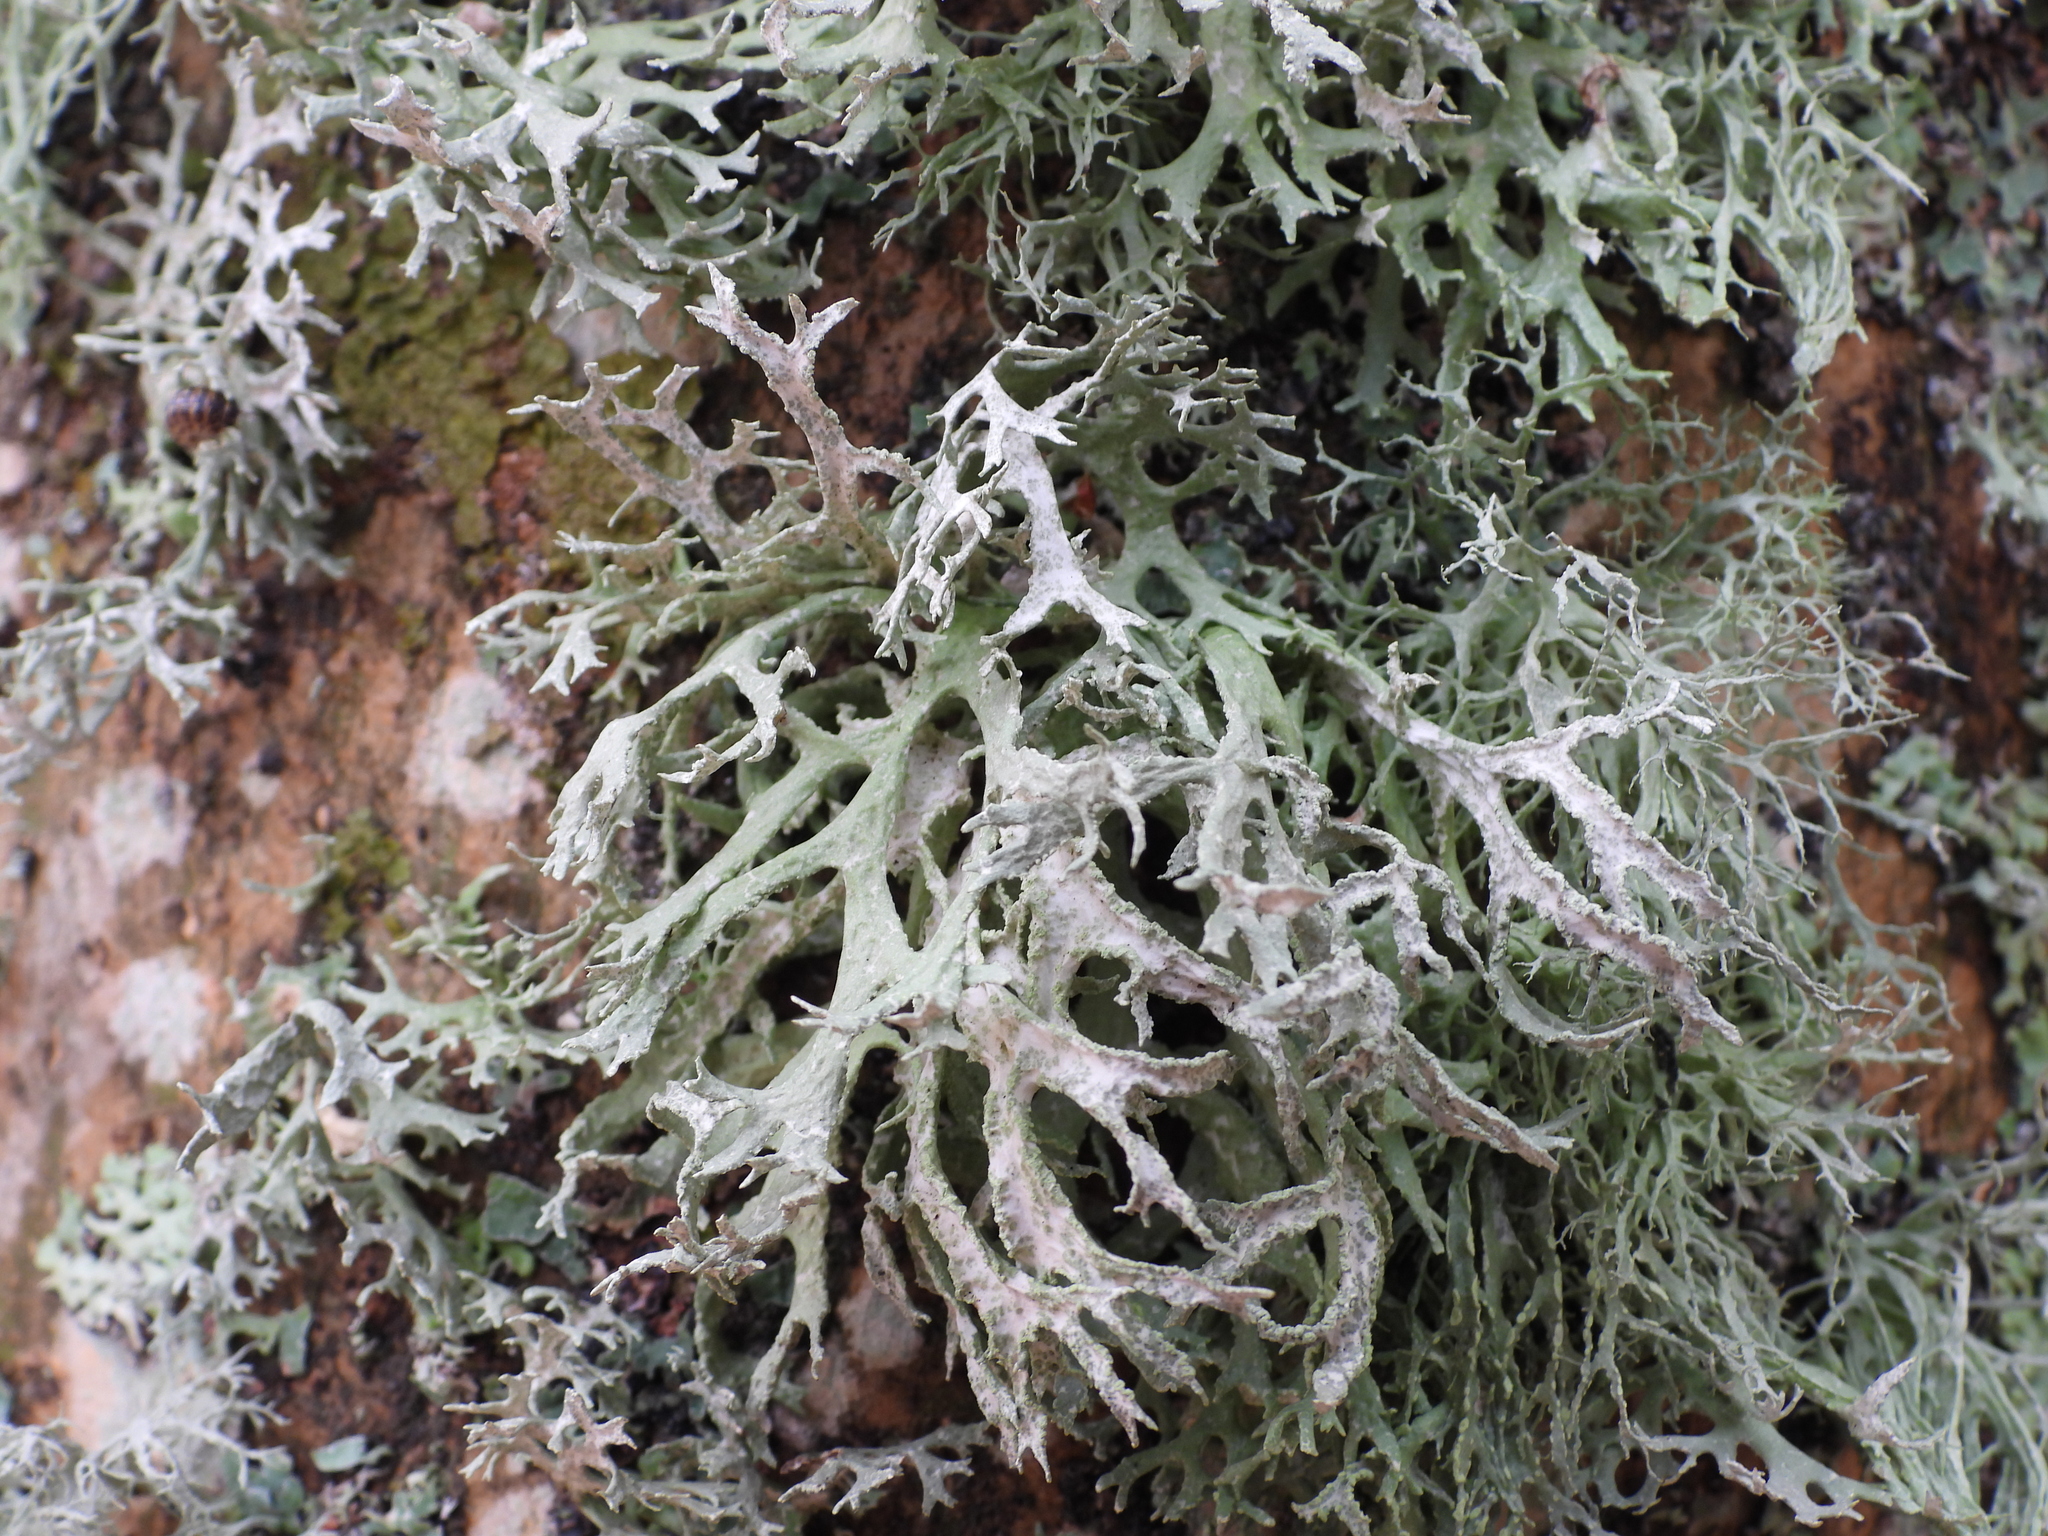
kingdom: Fungi
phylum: Ascomycota
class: Lecanoromycetes
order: Lecanorales
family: Parmeliaceae
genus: Evernia
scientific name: Evernia prunastri
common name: Oak moss
